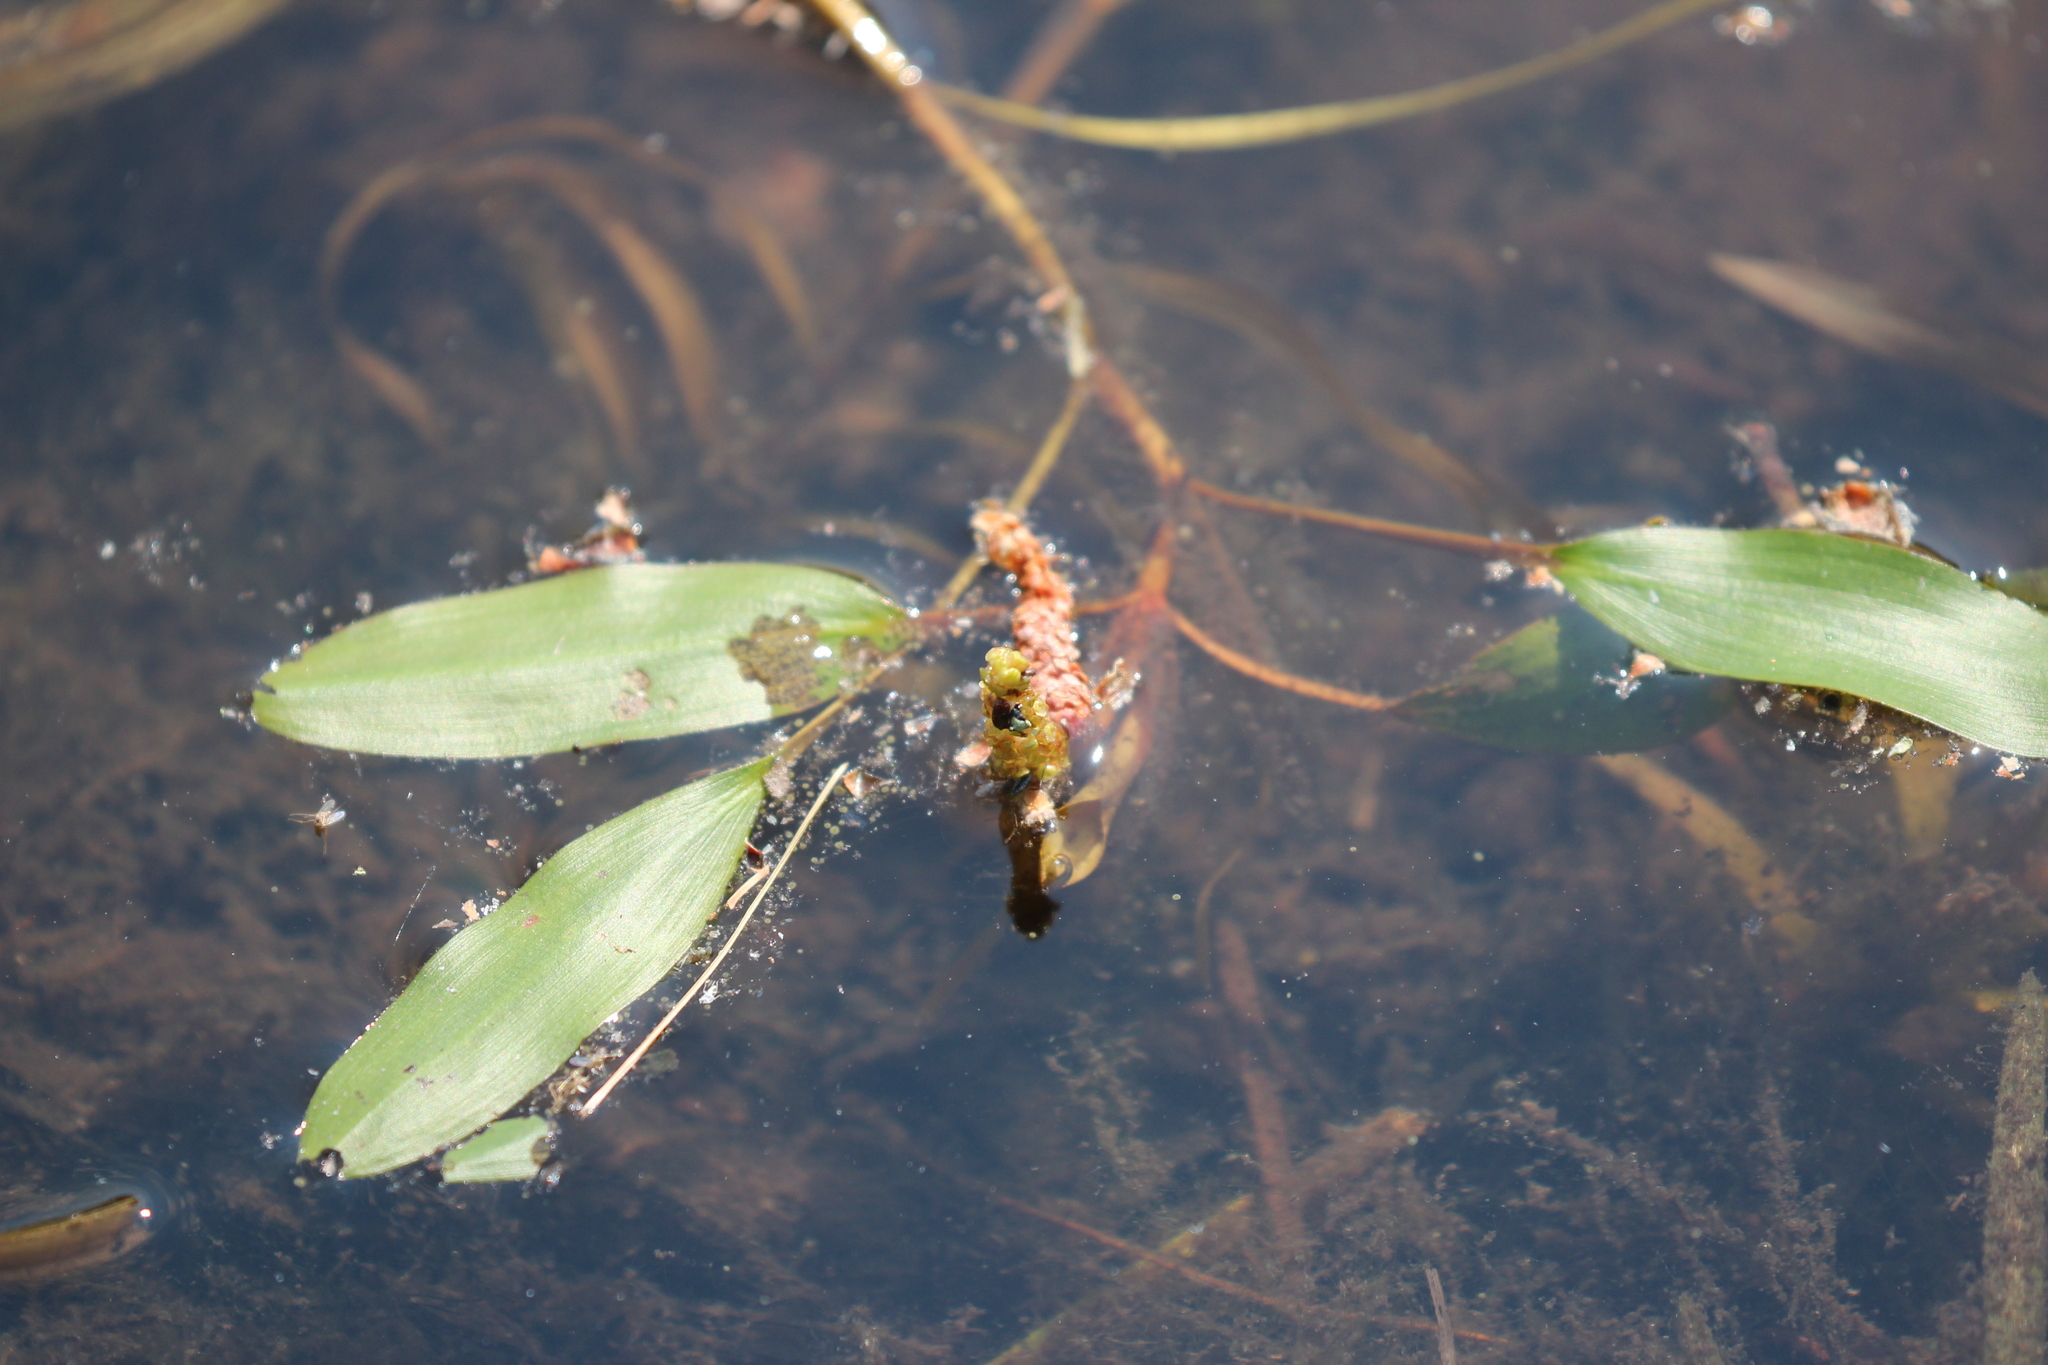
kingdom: Plantae
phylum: Tracheophyta
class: Liliopsida
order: Alismatales
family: Potamogetonaceae
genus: Potamogeton
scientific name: Potamogeton epihydrus
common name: American pondweed
